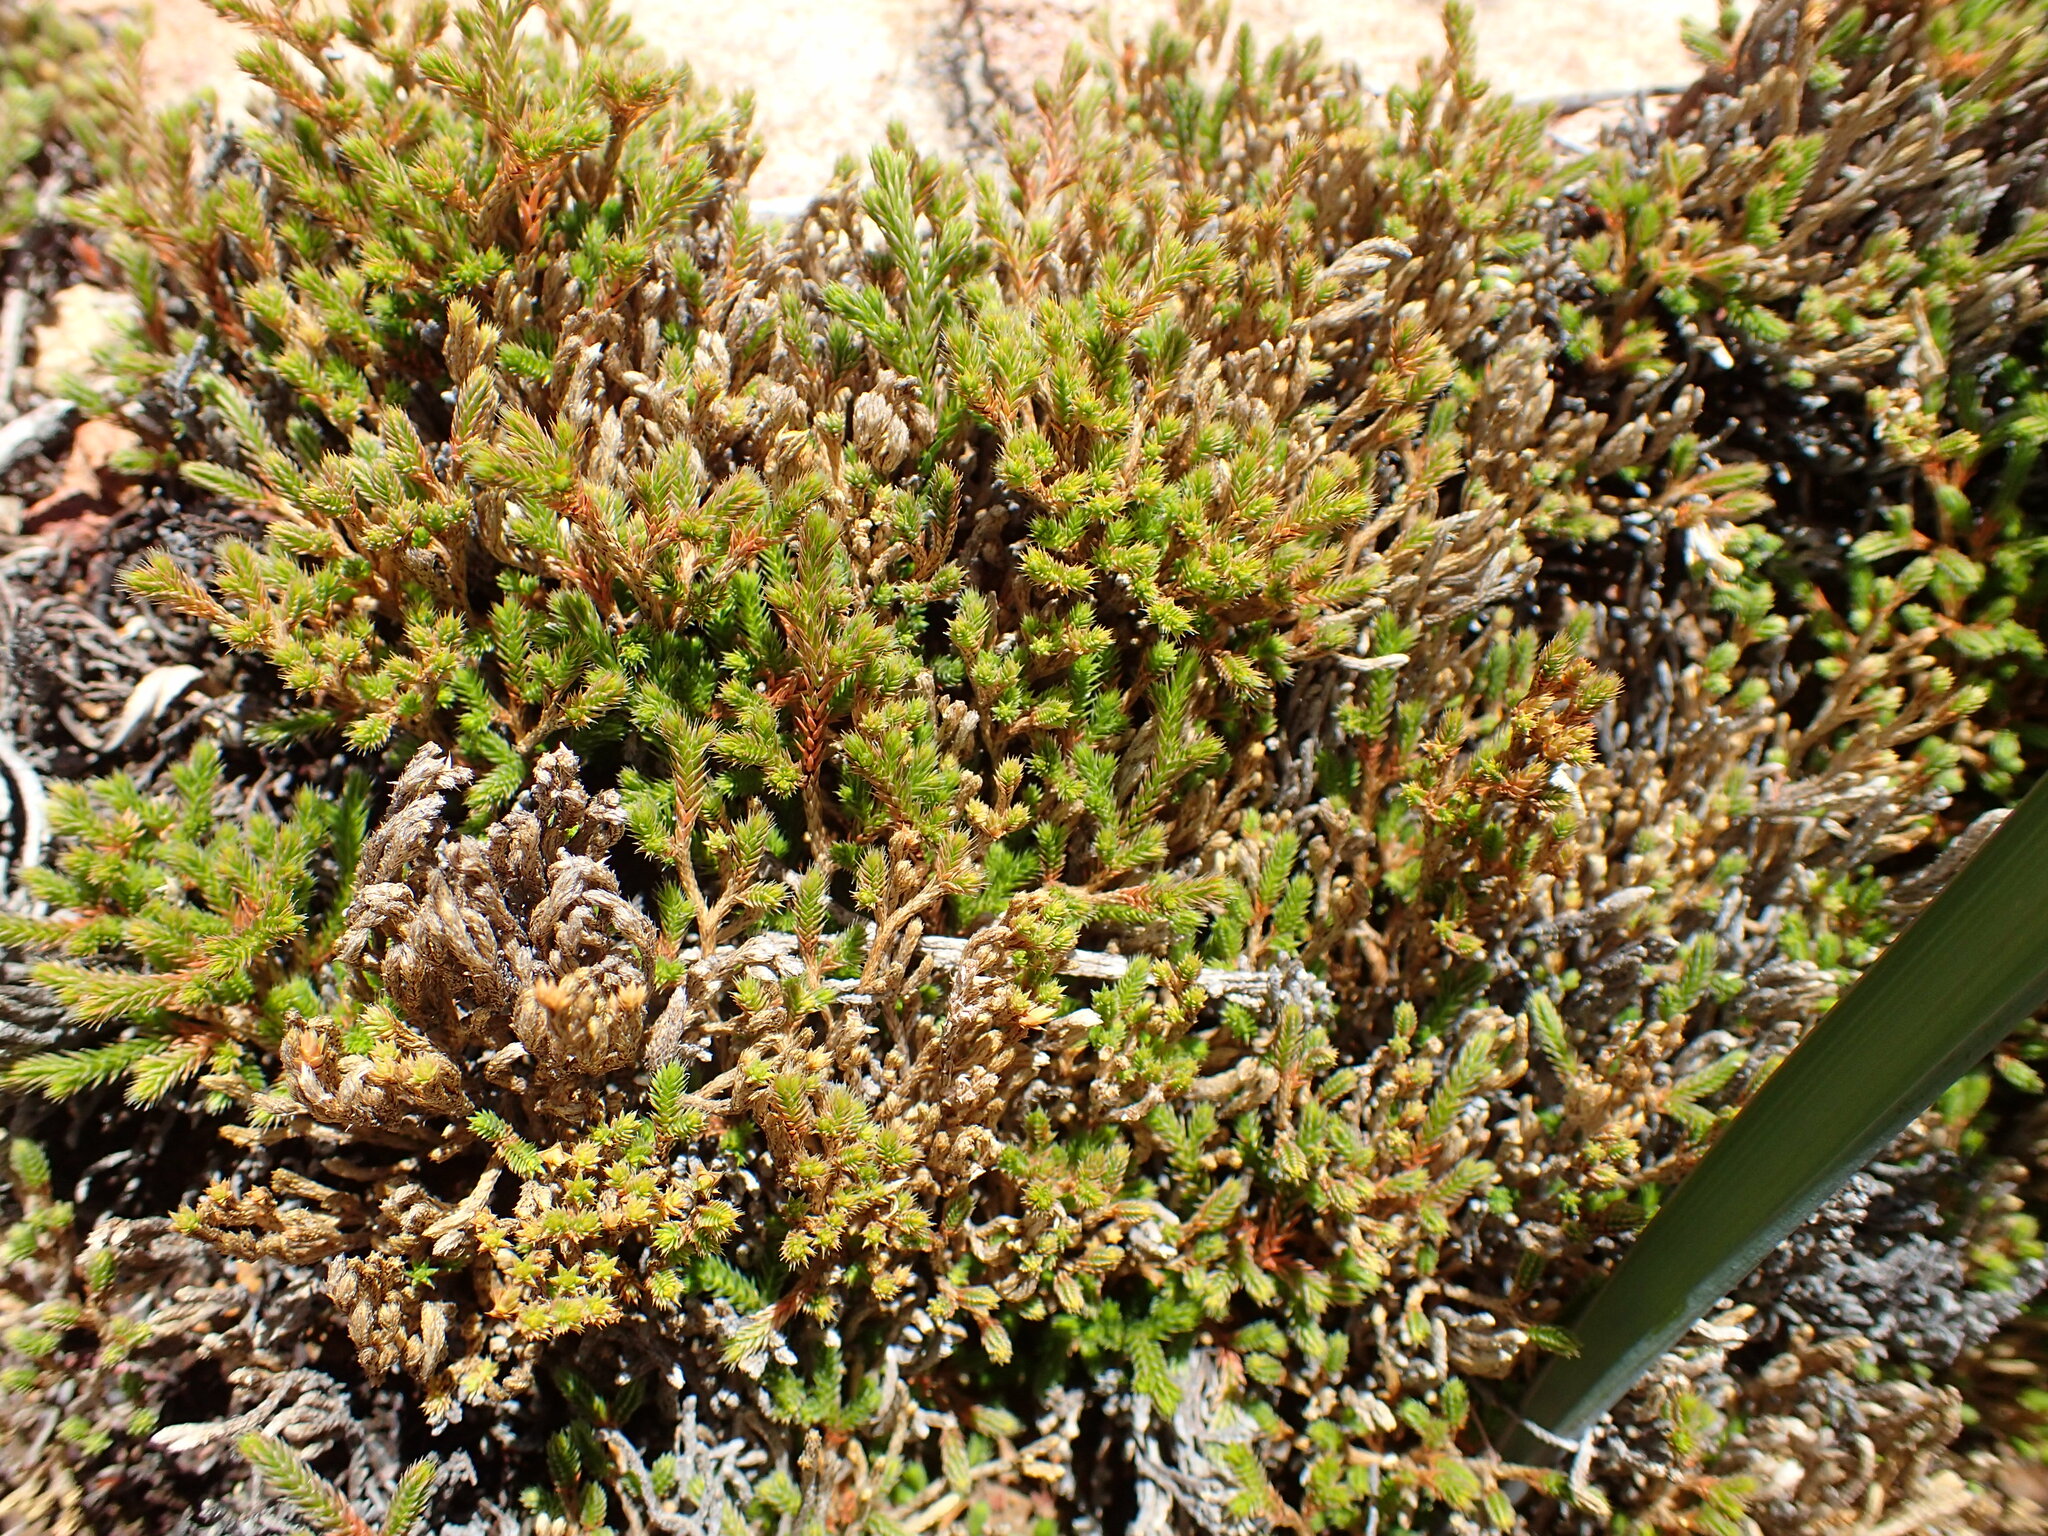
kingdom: Plantae
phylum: Tracheophyta
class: Lycopodiopsida
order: Selaginellales
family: Selaginellaceae
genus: Selaginella
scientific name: Selaginella bigelovii
